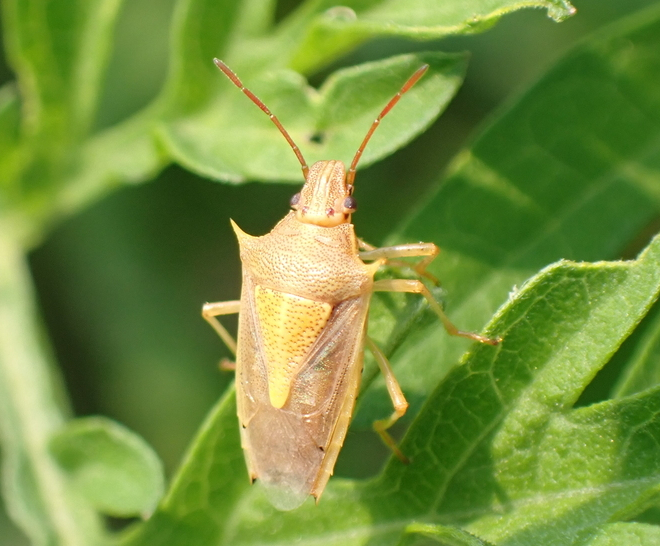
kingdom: Animalia
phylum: Arthropoda
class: Insecta
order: Hemiptera
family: Pentatomidae
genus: Oebalus
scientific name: Oebalus pugnax
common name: Rice stink bug
